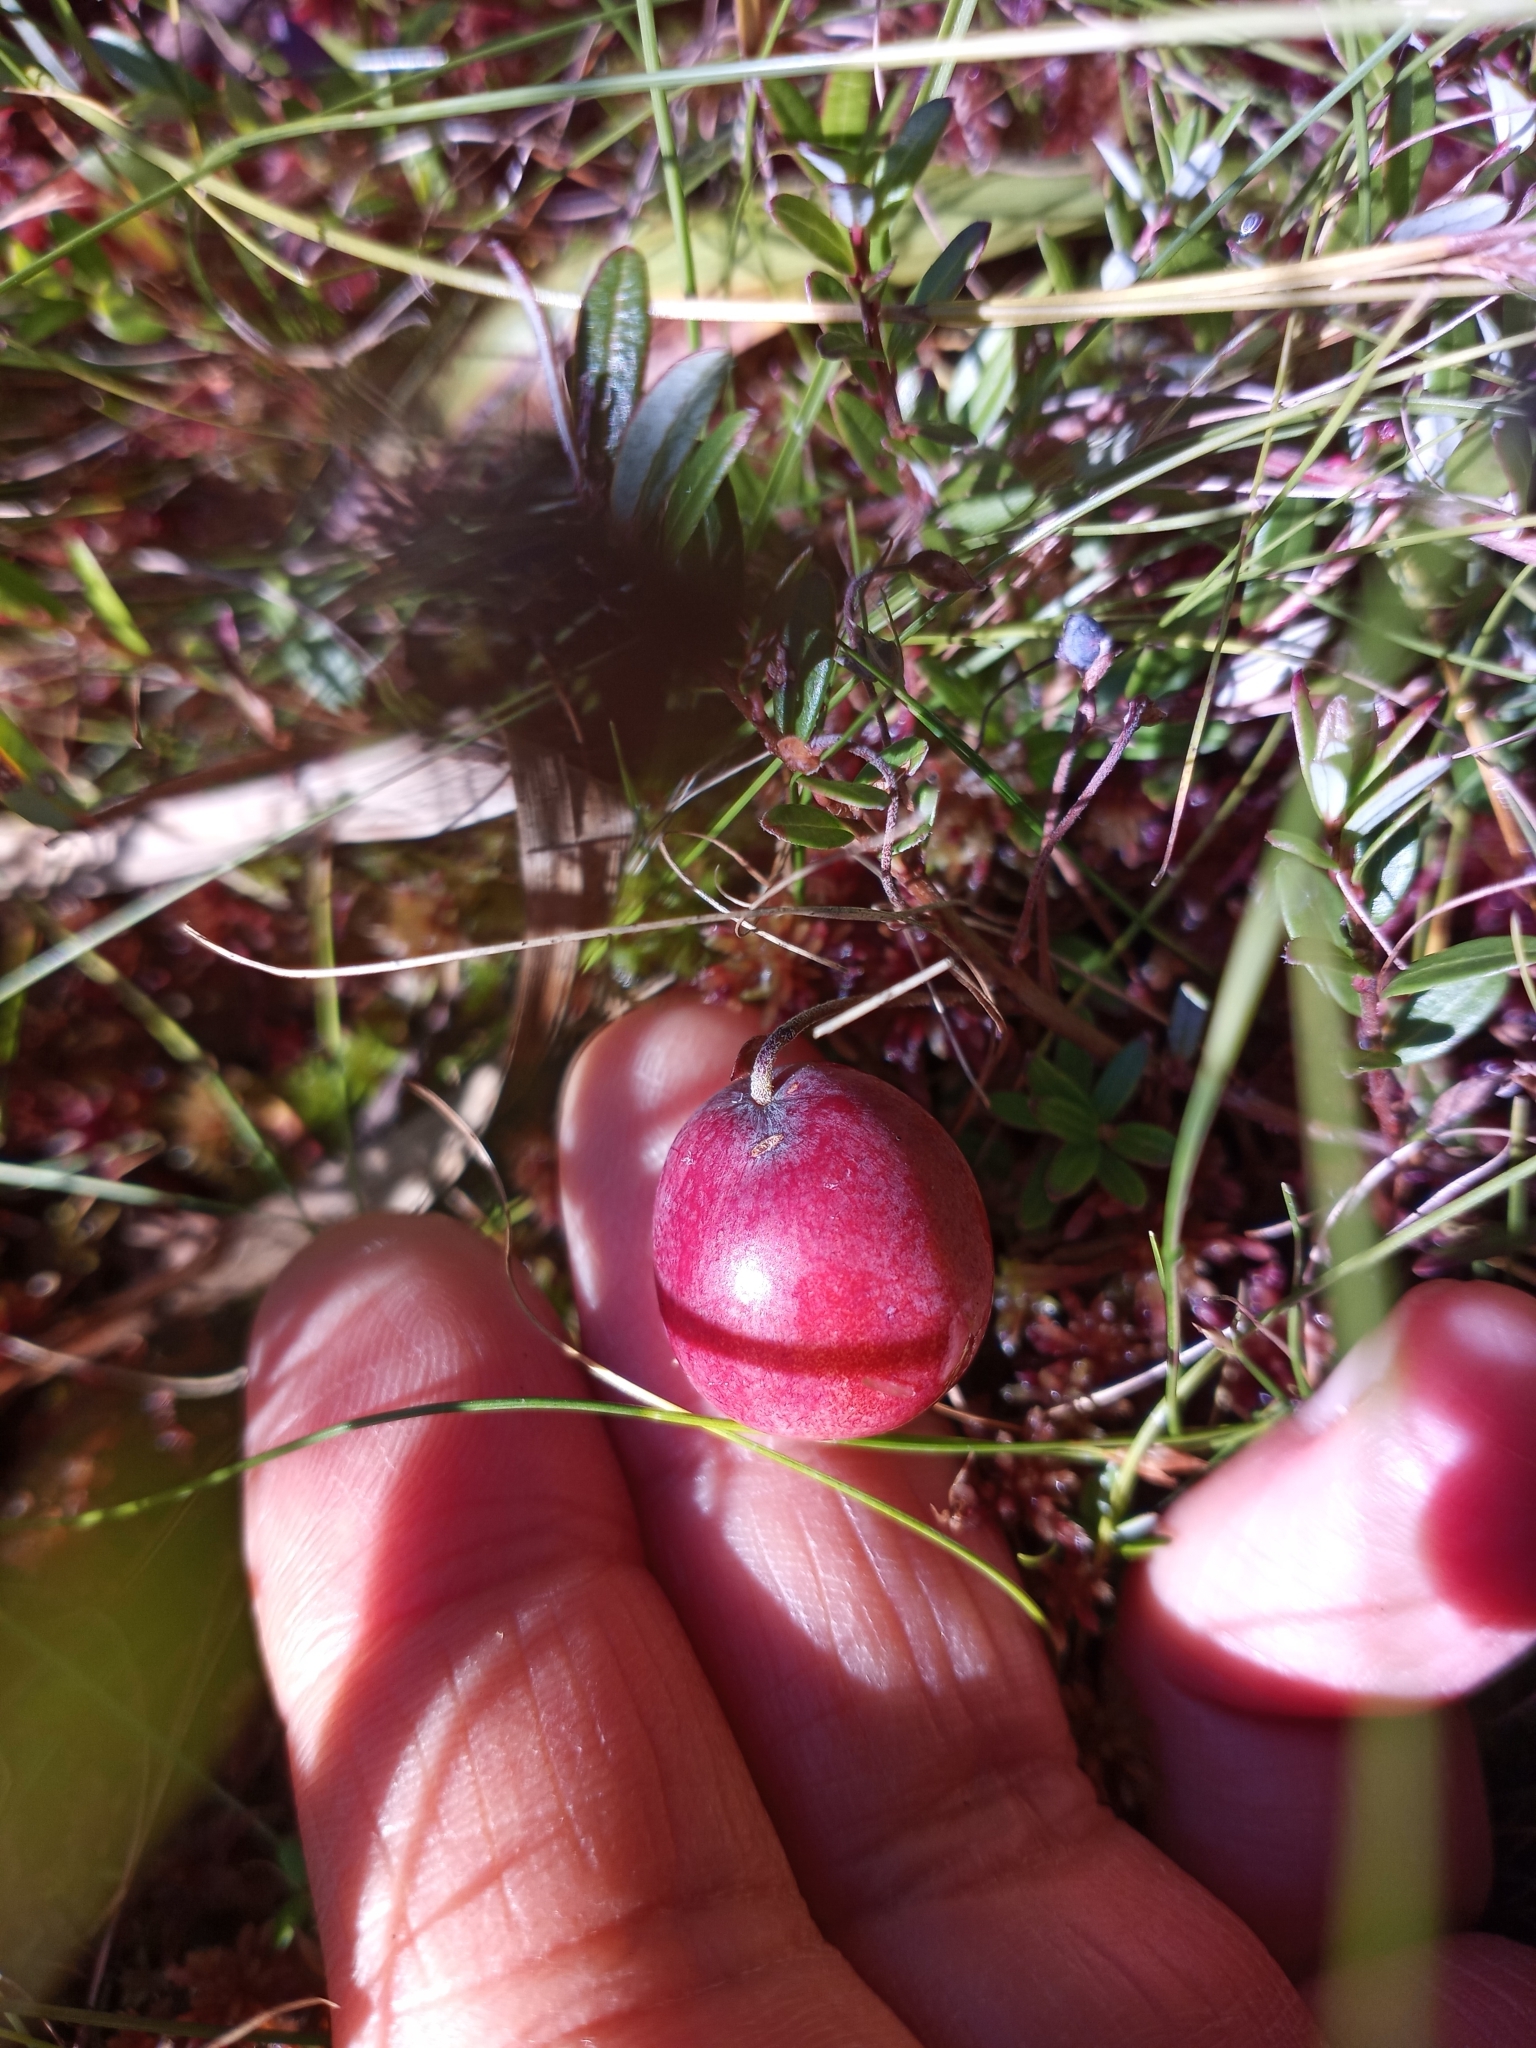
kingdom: Plantae
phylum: Tracheophyta
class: Magnoliopsida
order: Ericales
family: Ericaceae
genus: Vaccinium
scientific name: Vaccinium macrocarpon
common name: American cranberry
